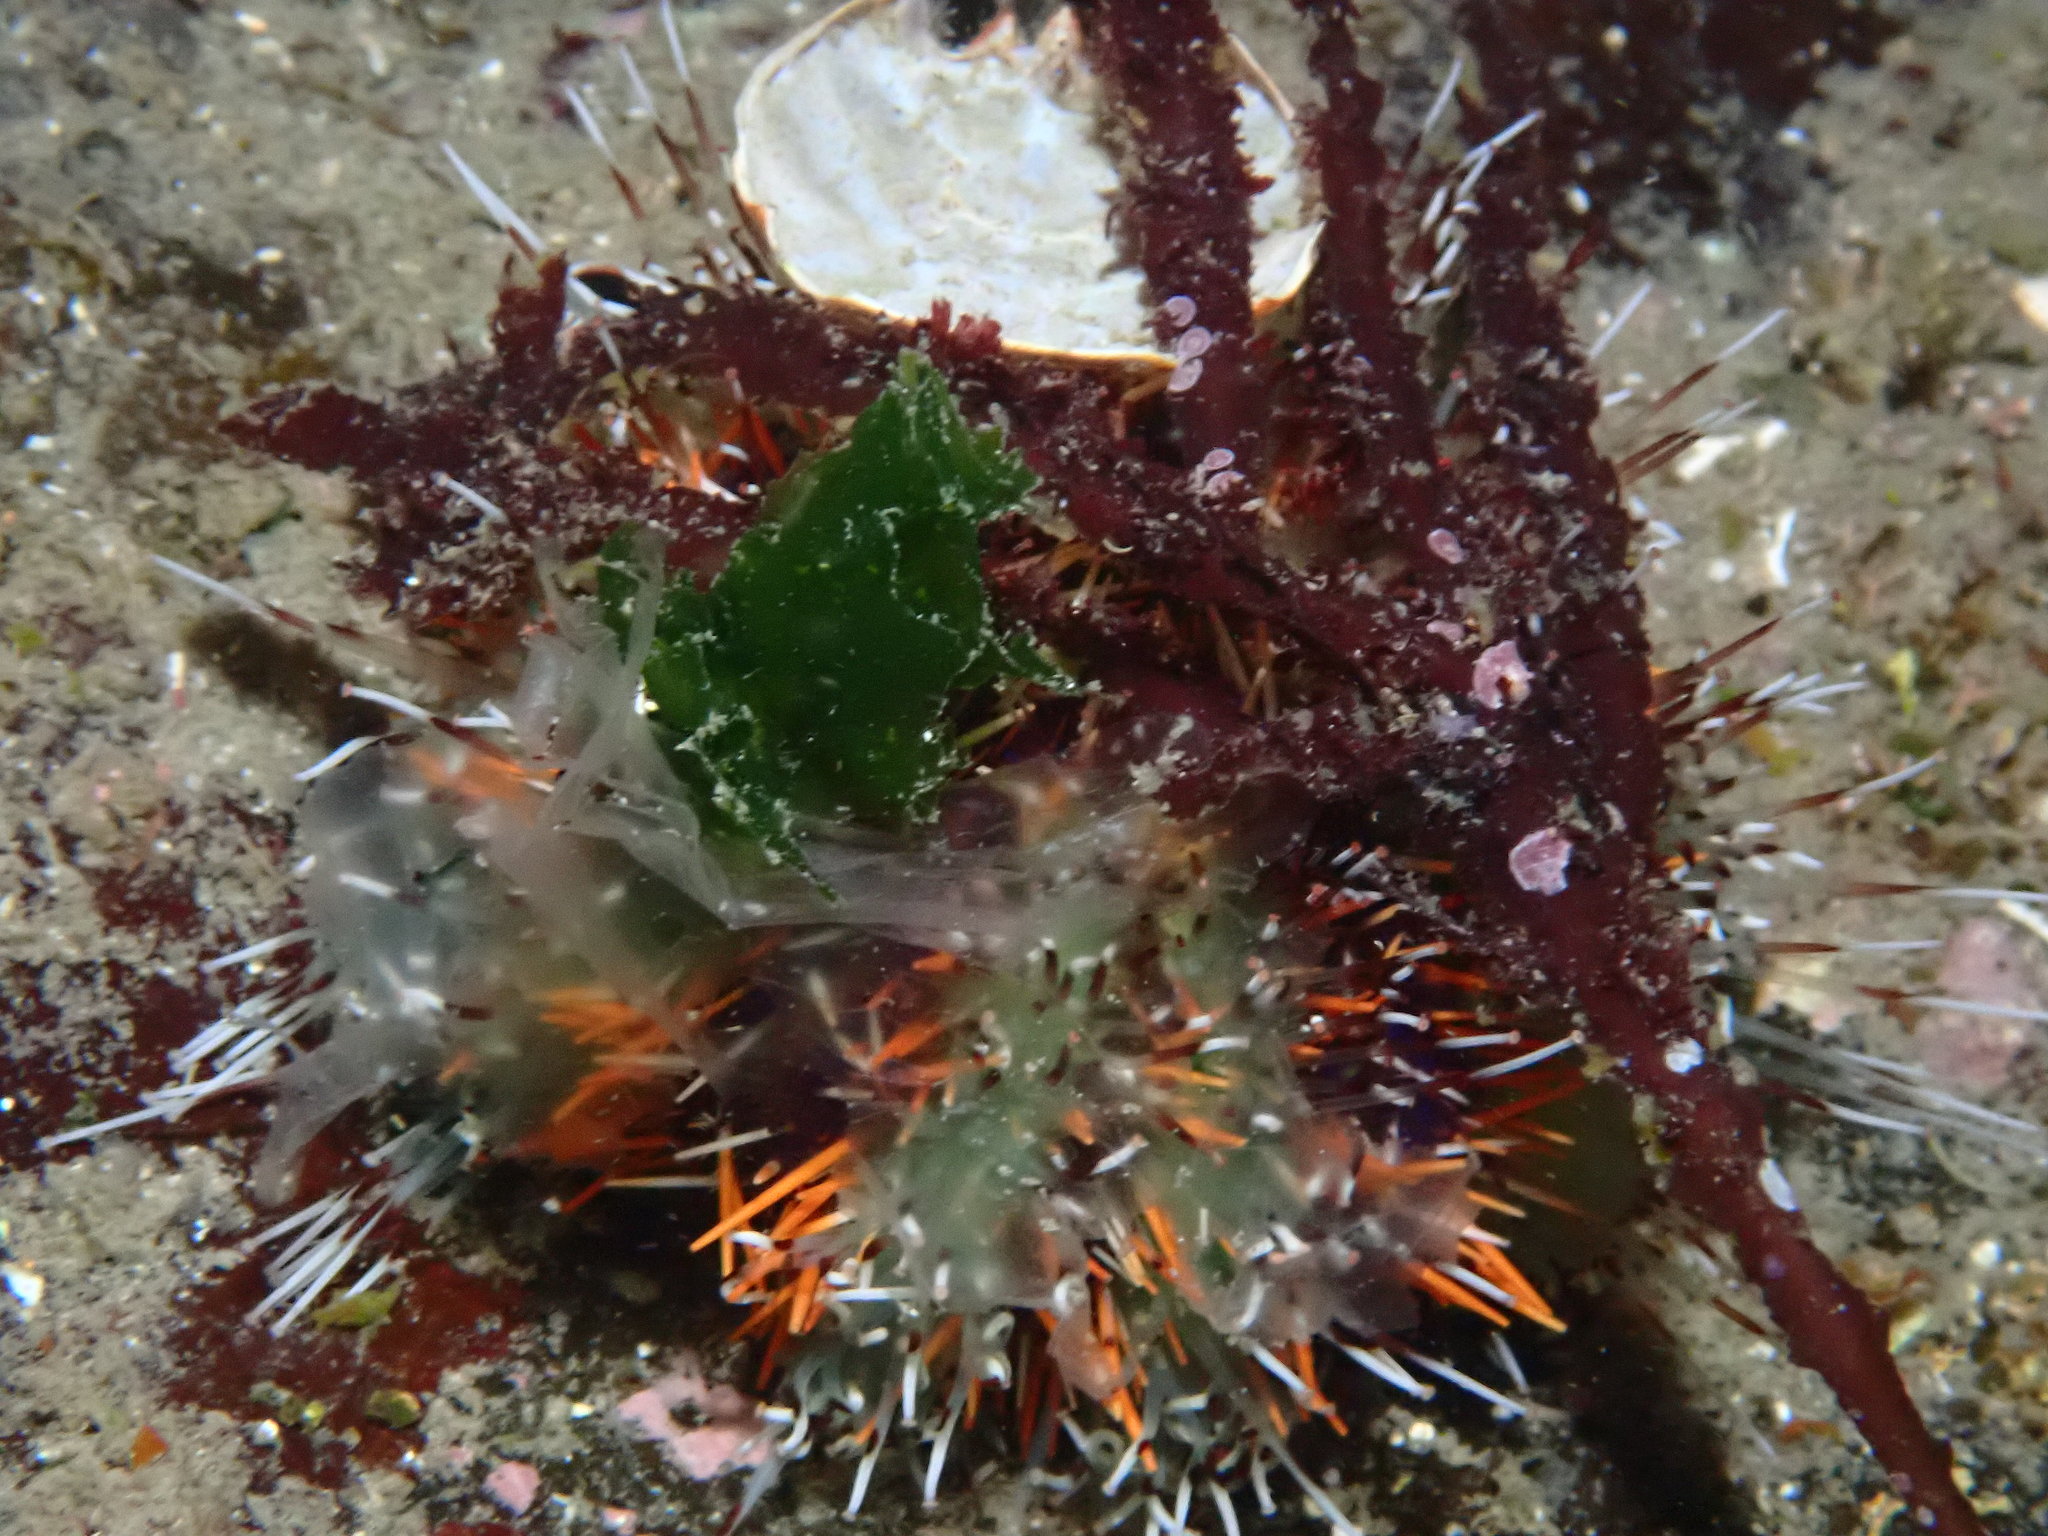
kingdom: Animalia
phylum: Echinodermata
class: Echinoidea
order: Camarodonta
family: Toxopneustidae
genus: Tripneustes
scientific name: Tripneustes gratilla
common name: Bischofsmützenseeigel
